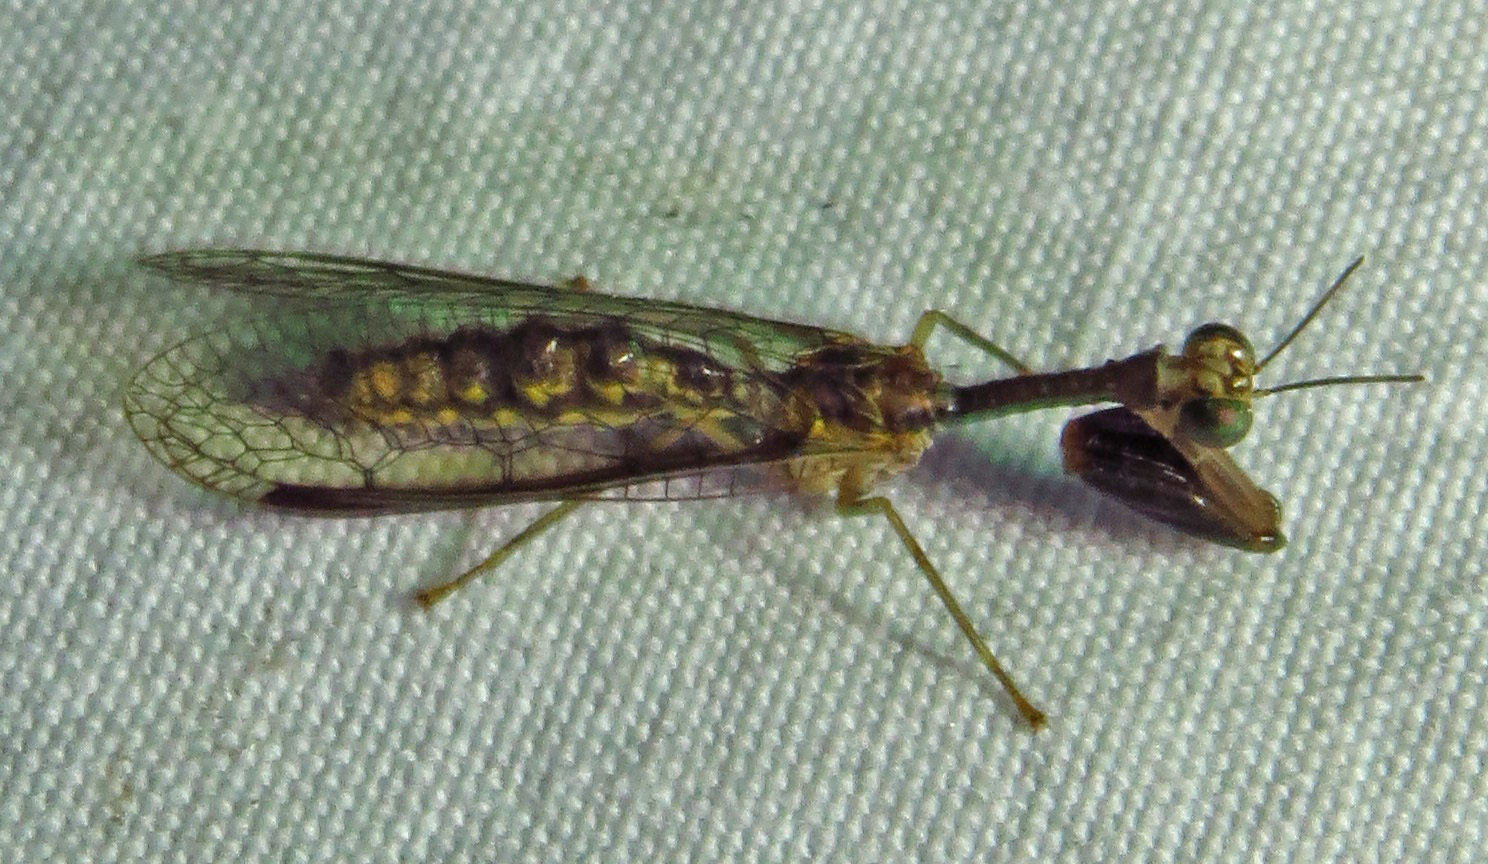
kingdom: Animalia
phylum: Arthropoda
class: Insecta
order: Neuroptera
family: Mantispidae
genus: Leptomantispa
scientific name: Leptomantispa pulchella
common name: Stevens's mantidfly
